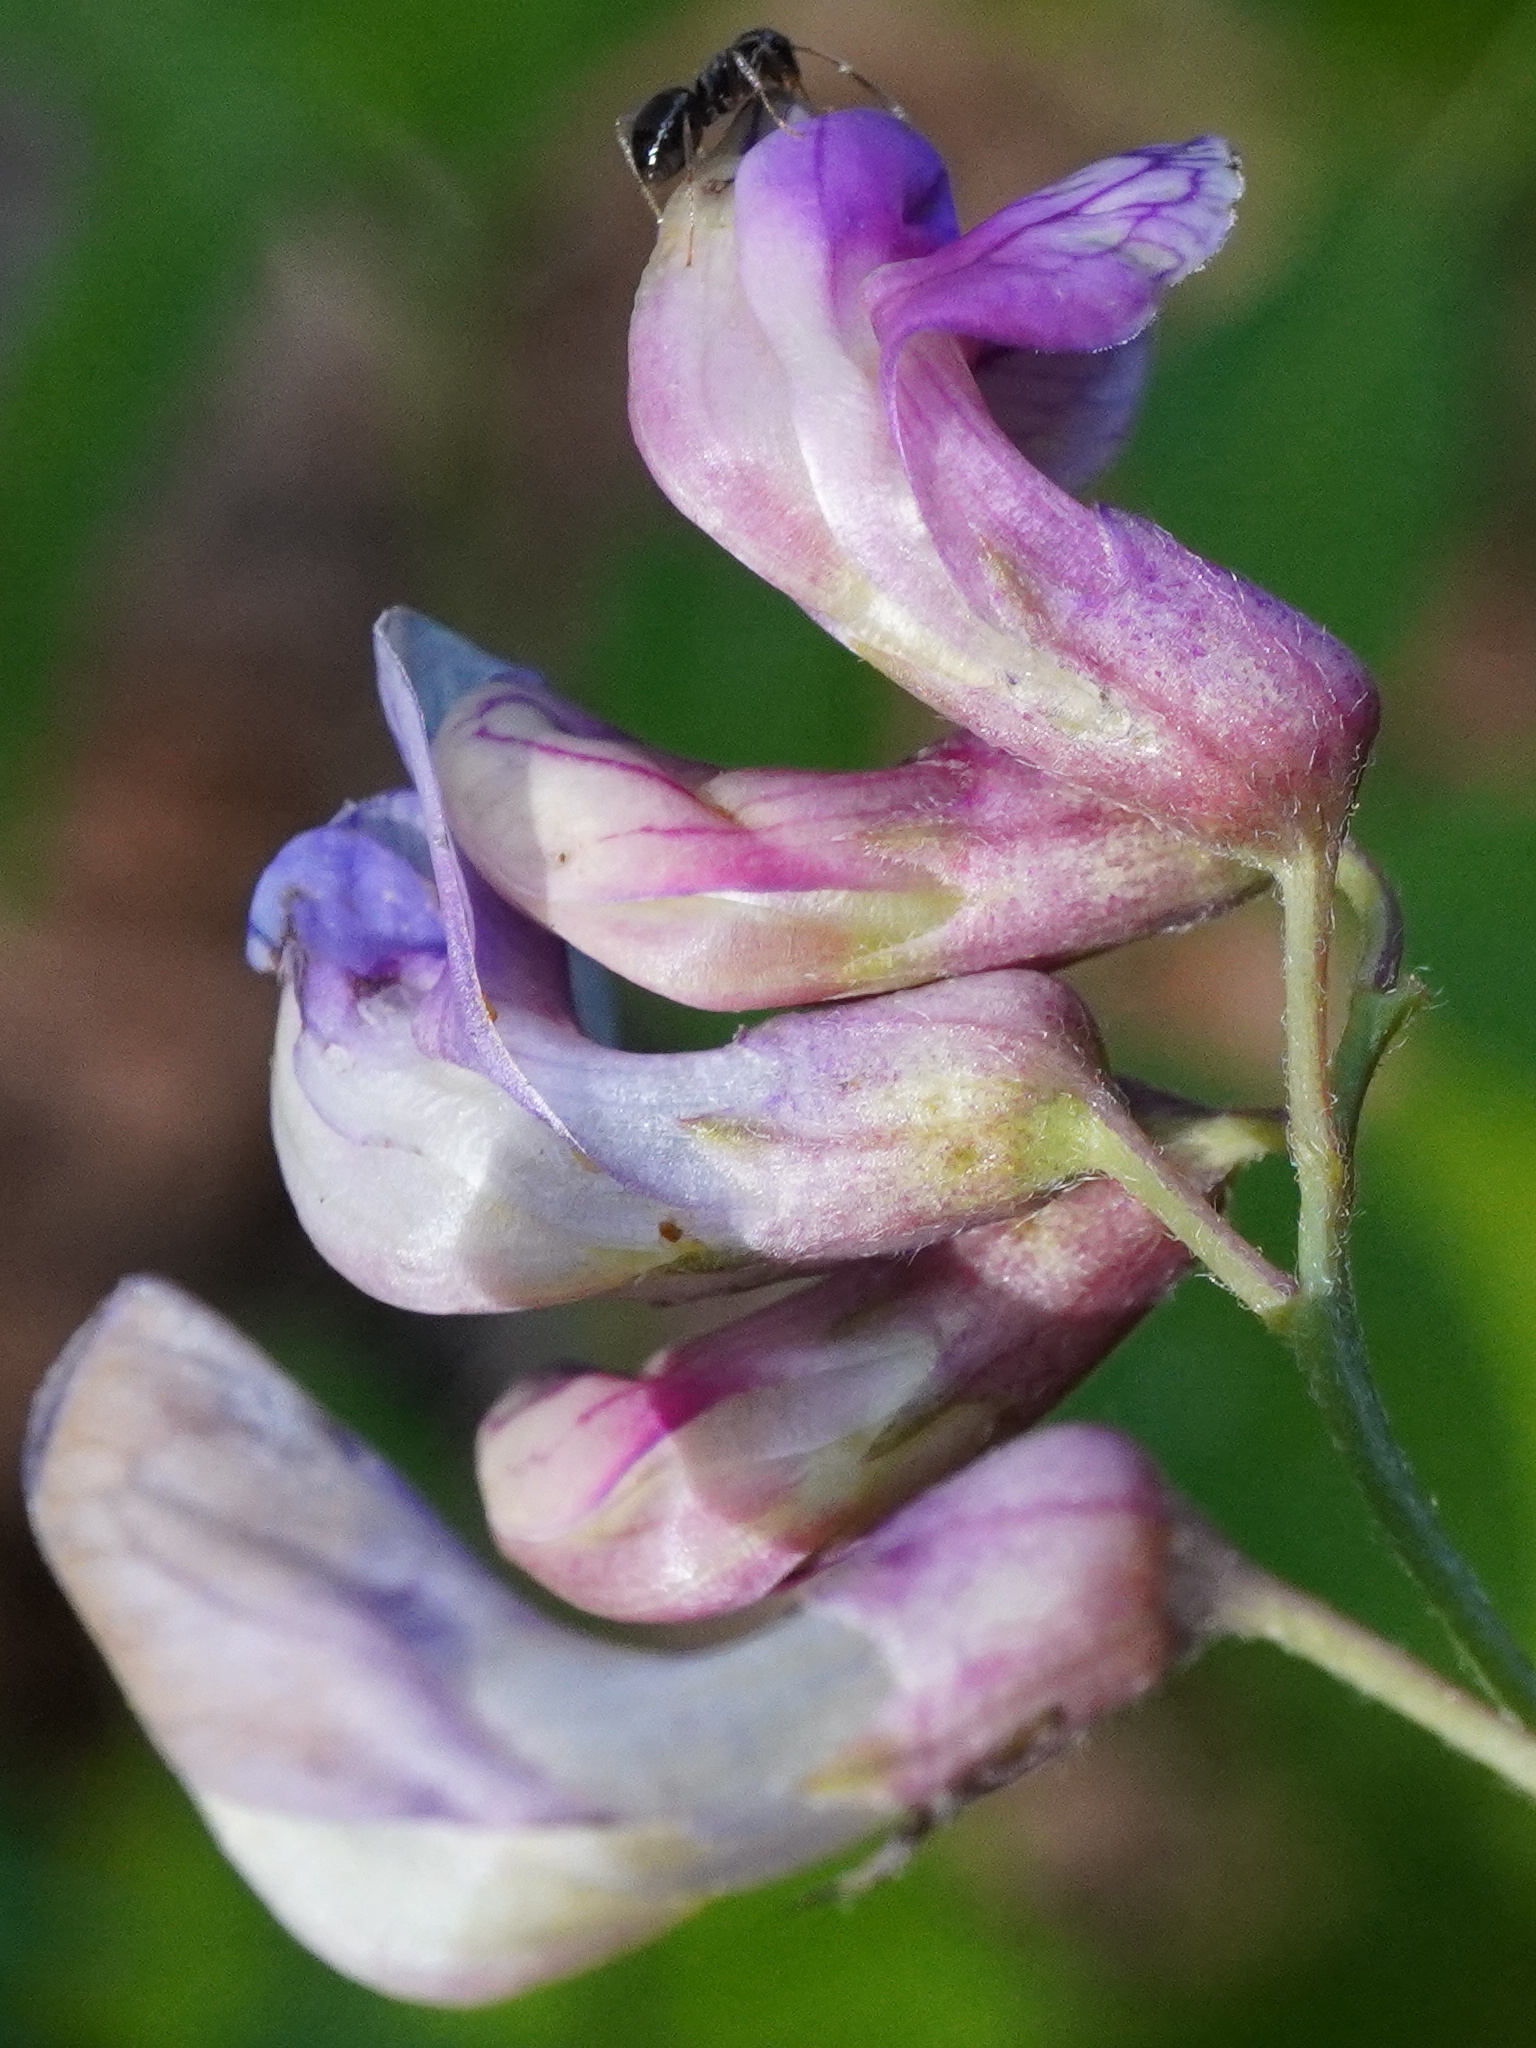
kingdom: Plantae
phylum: Tracheophyta
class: Magnoliopsida
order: Fabales
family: Fabaceae
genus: Lathyrus
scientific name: Lathyrus niger
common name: Black pea
